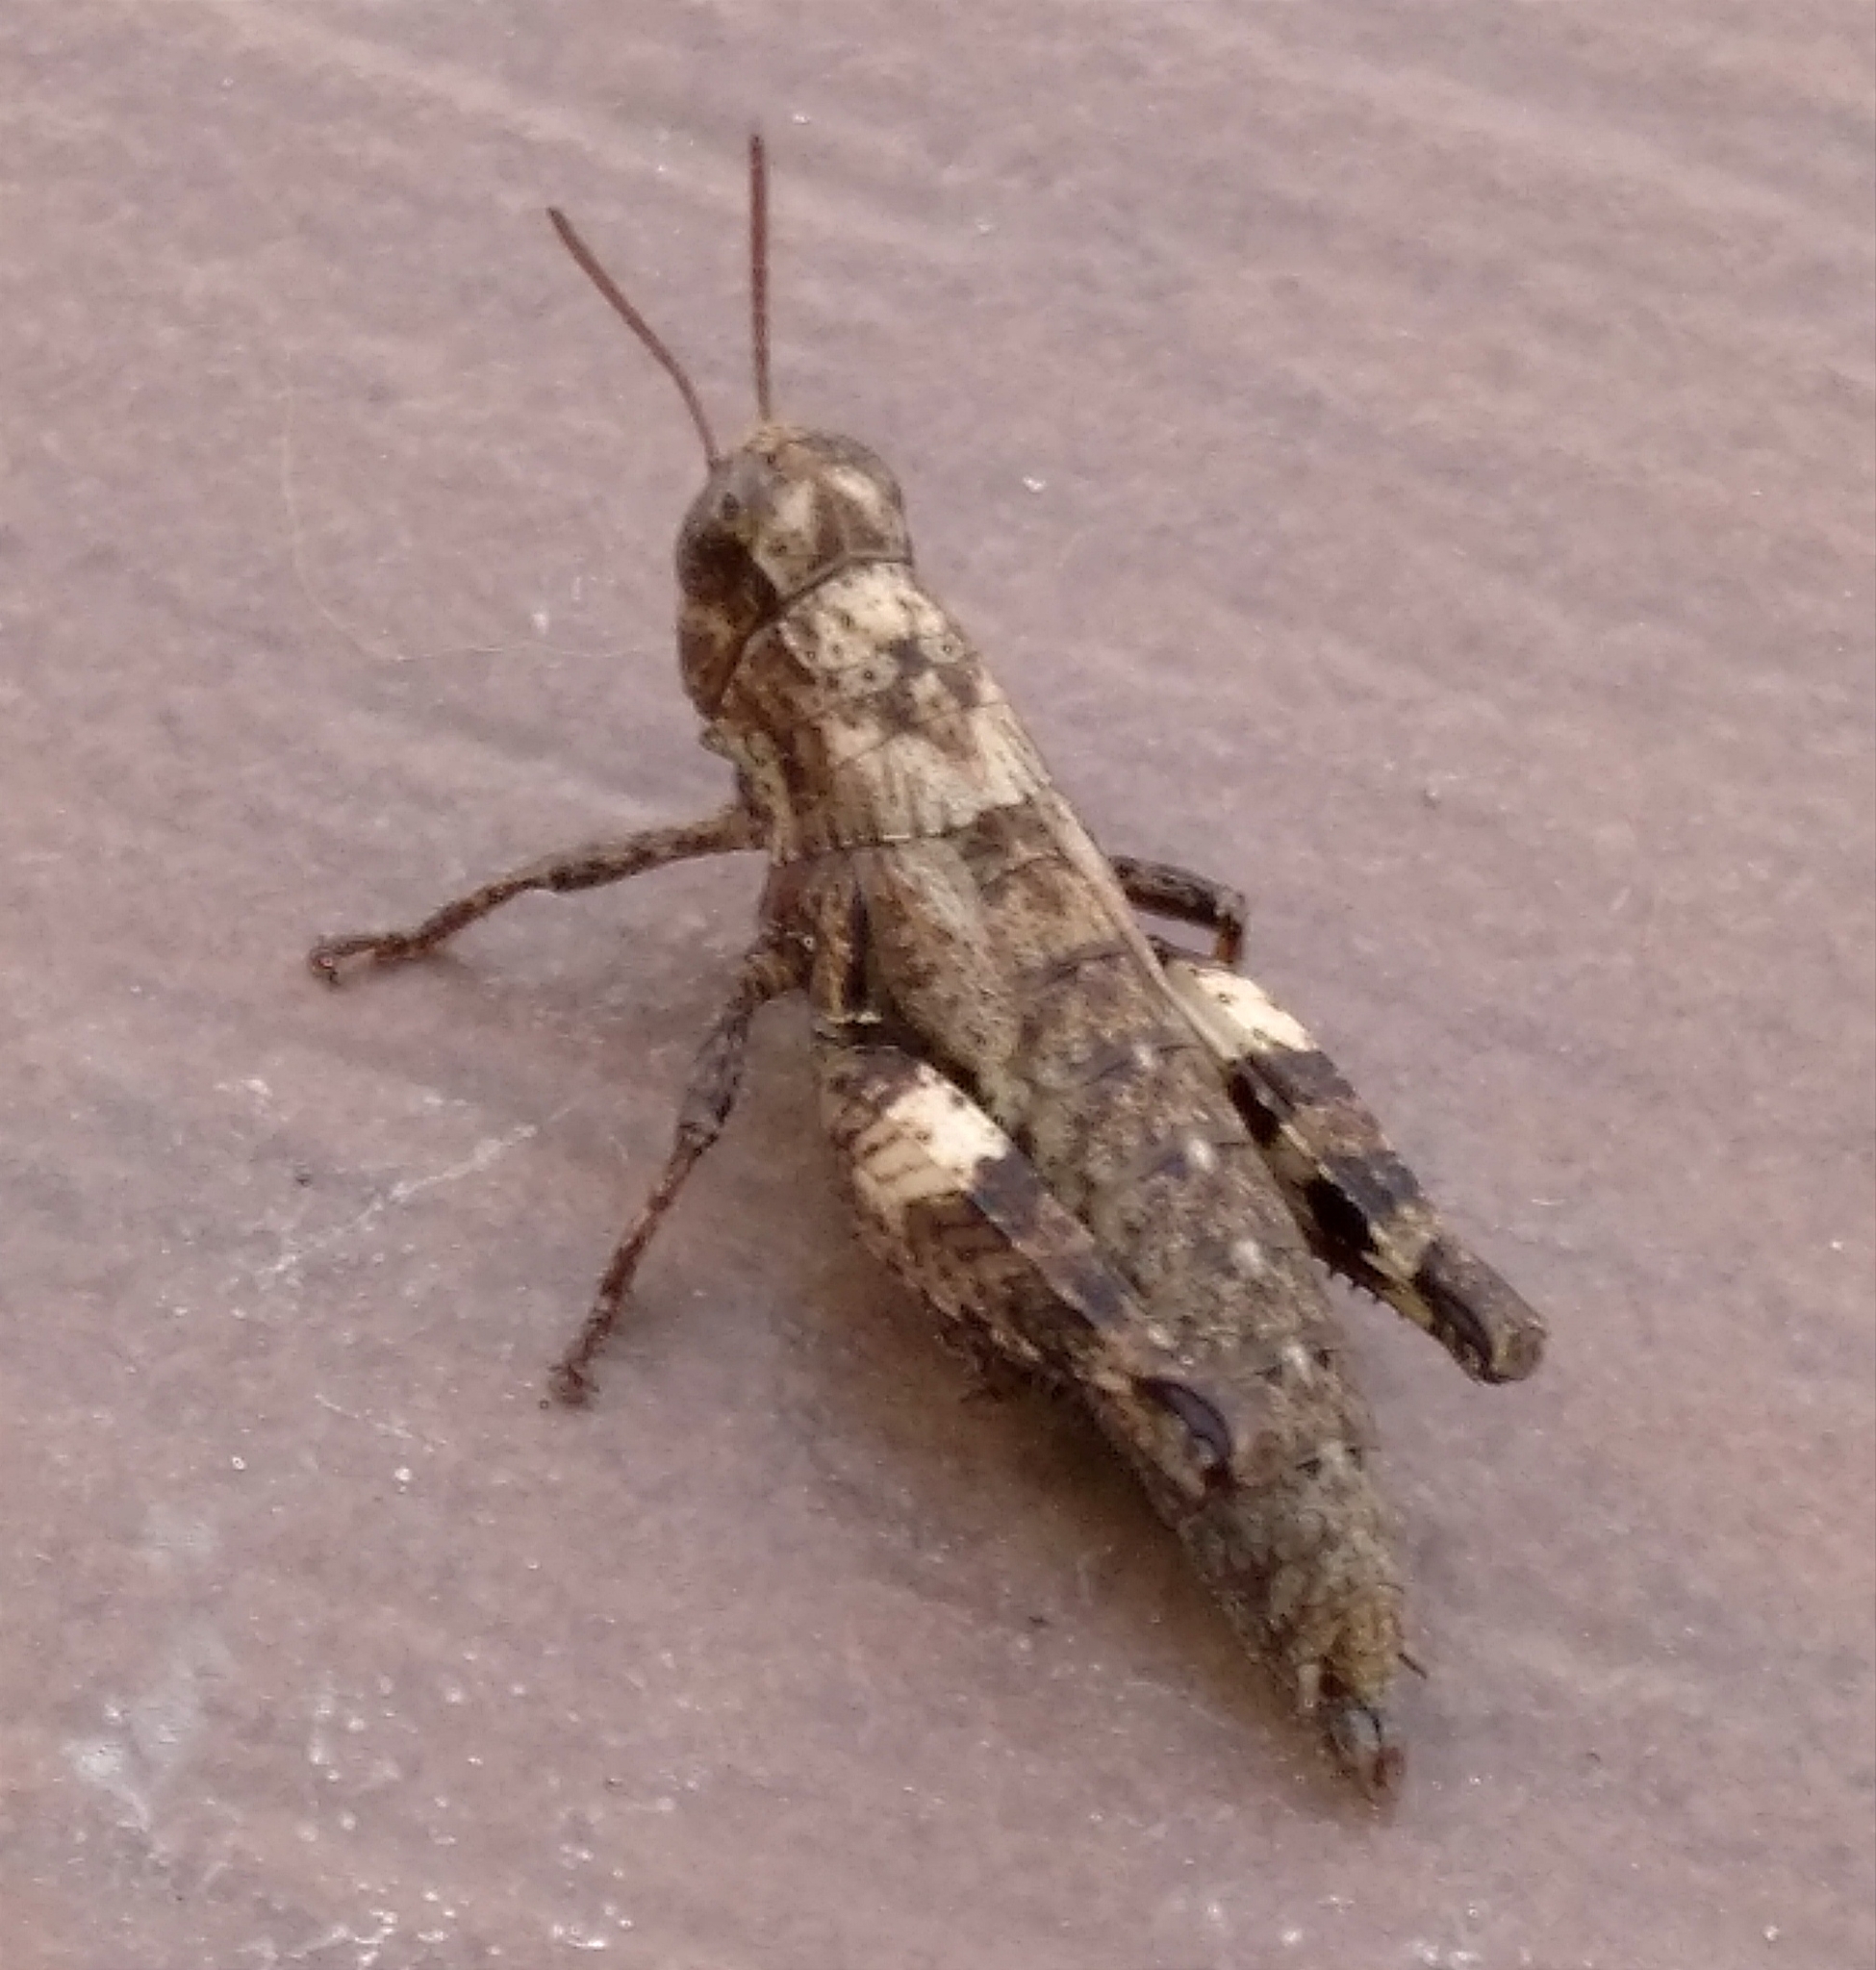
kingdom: Animalia
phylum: Arthropoda
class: Insecta
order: Orthoptera
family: Acrididae
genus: Pezotettix
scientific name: Pezotettix giornae
